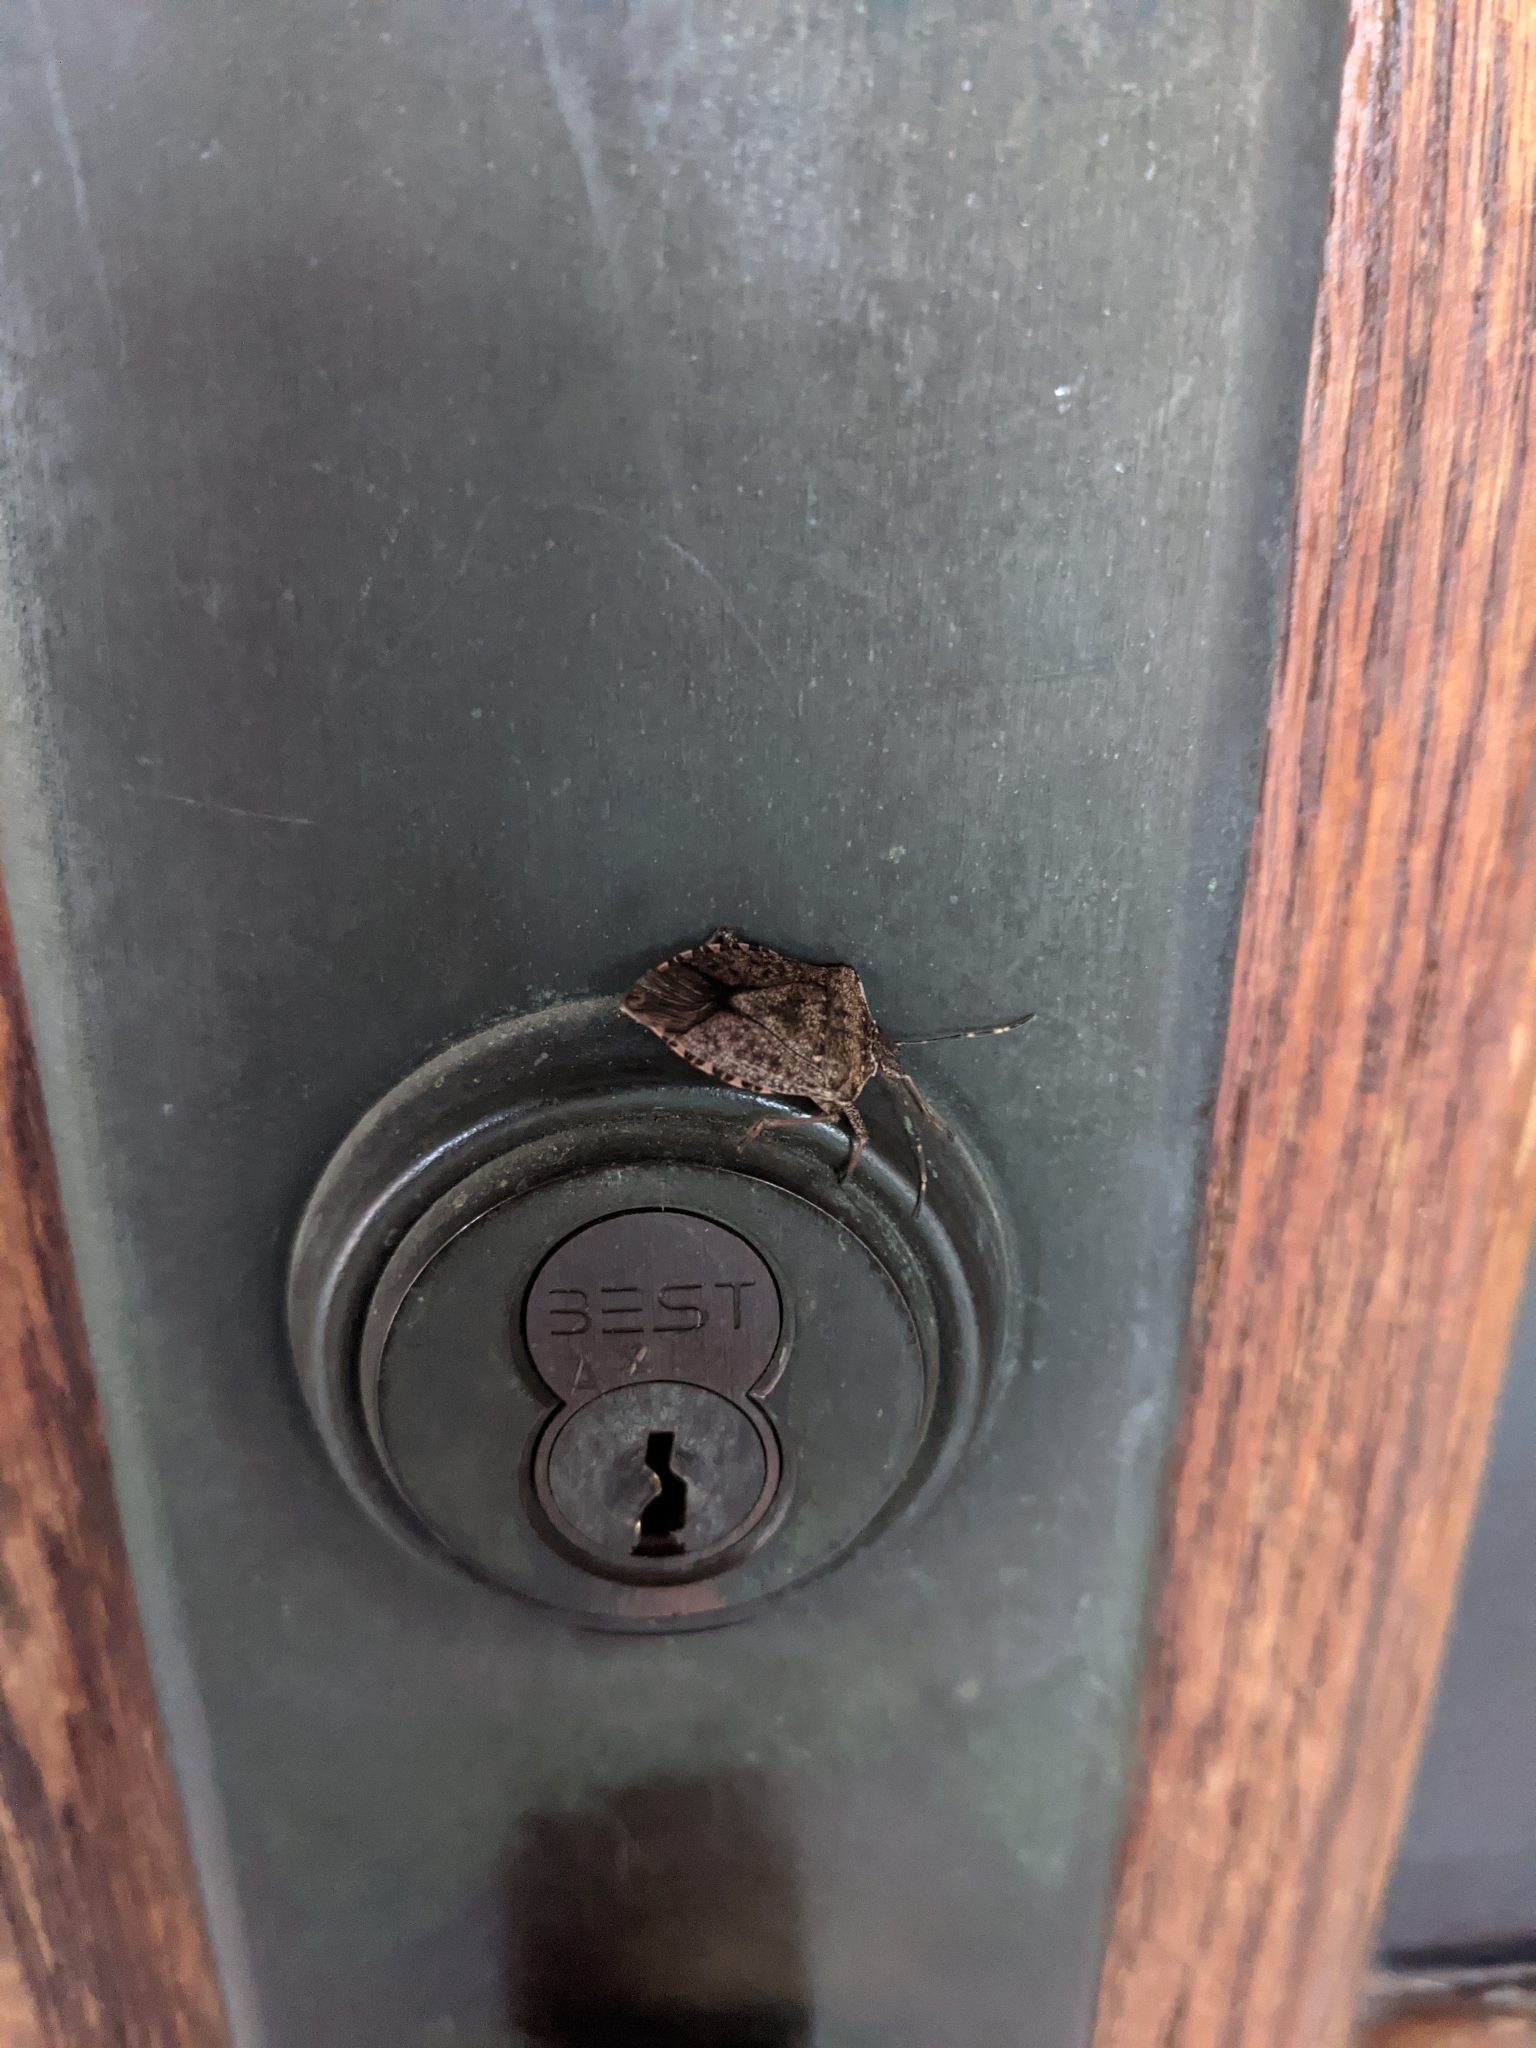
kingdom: Animalia
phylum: Arthropoda
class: Insecta
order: Hemiptera
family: Pentatomidae
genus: Halyomorpha
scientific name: Halyomorpha halys
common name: Brown marmorated stink bug
